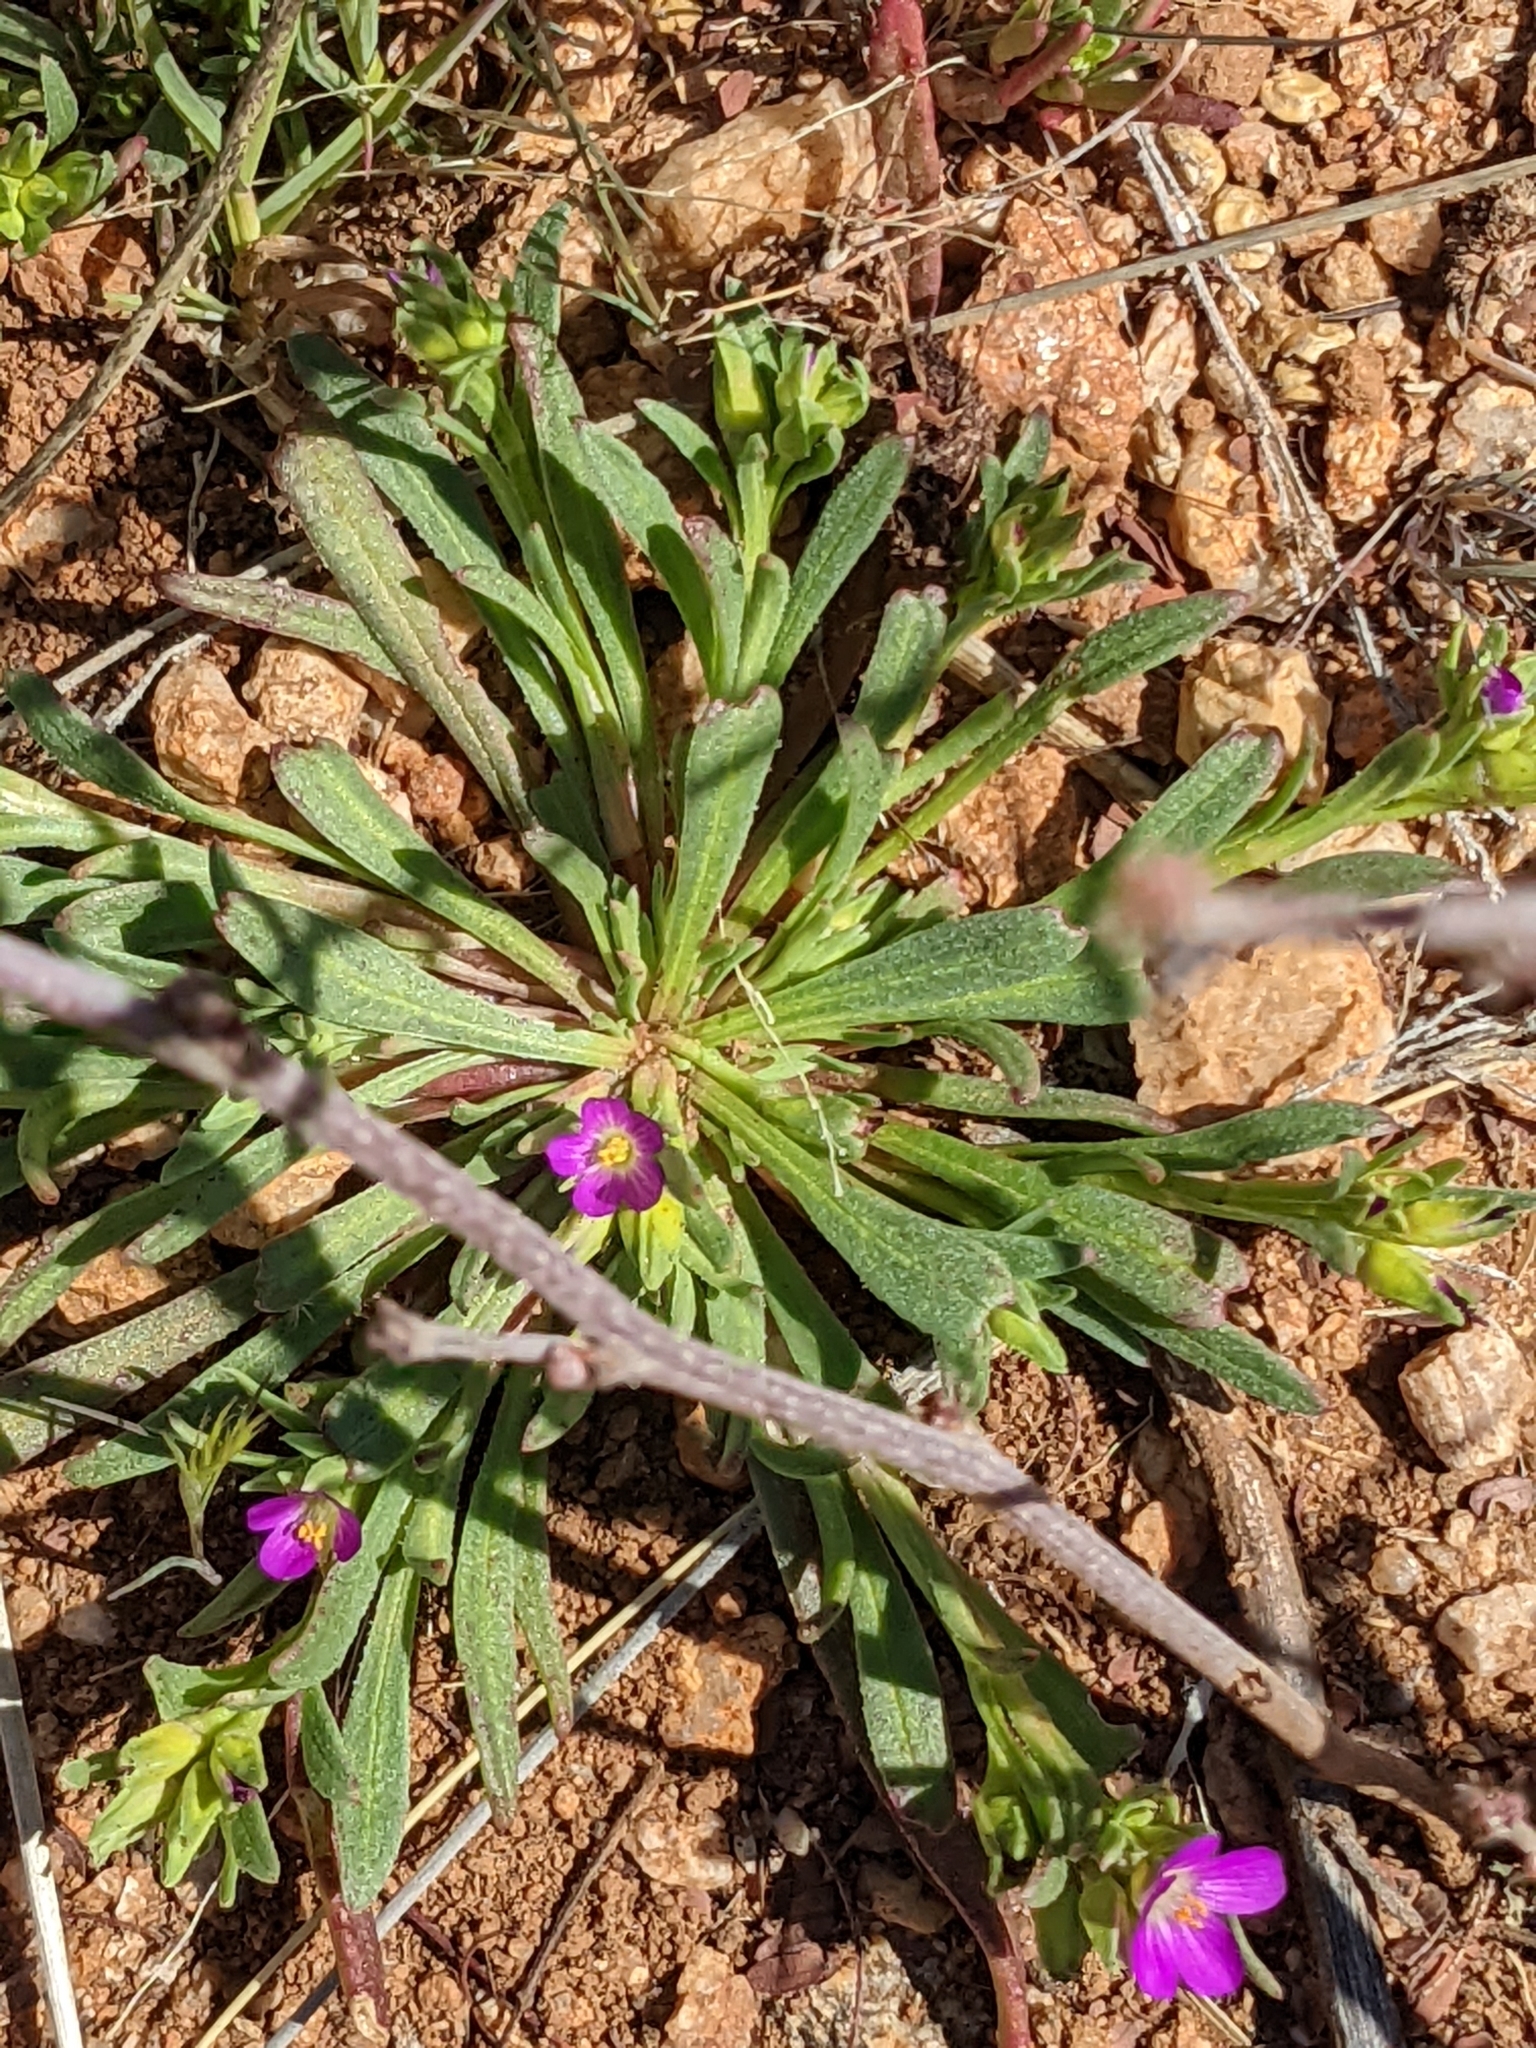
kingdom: Plantae
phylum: Tracheophyta
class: Magnoliopsida
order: Caryophyllales
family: Montiaceae
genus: Calandrinia
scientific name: Calandrinia menziesii
